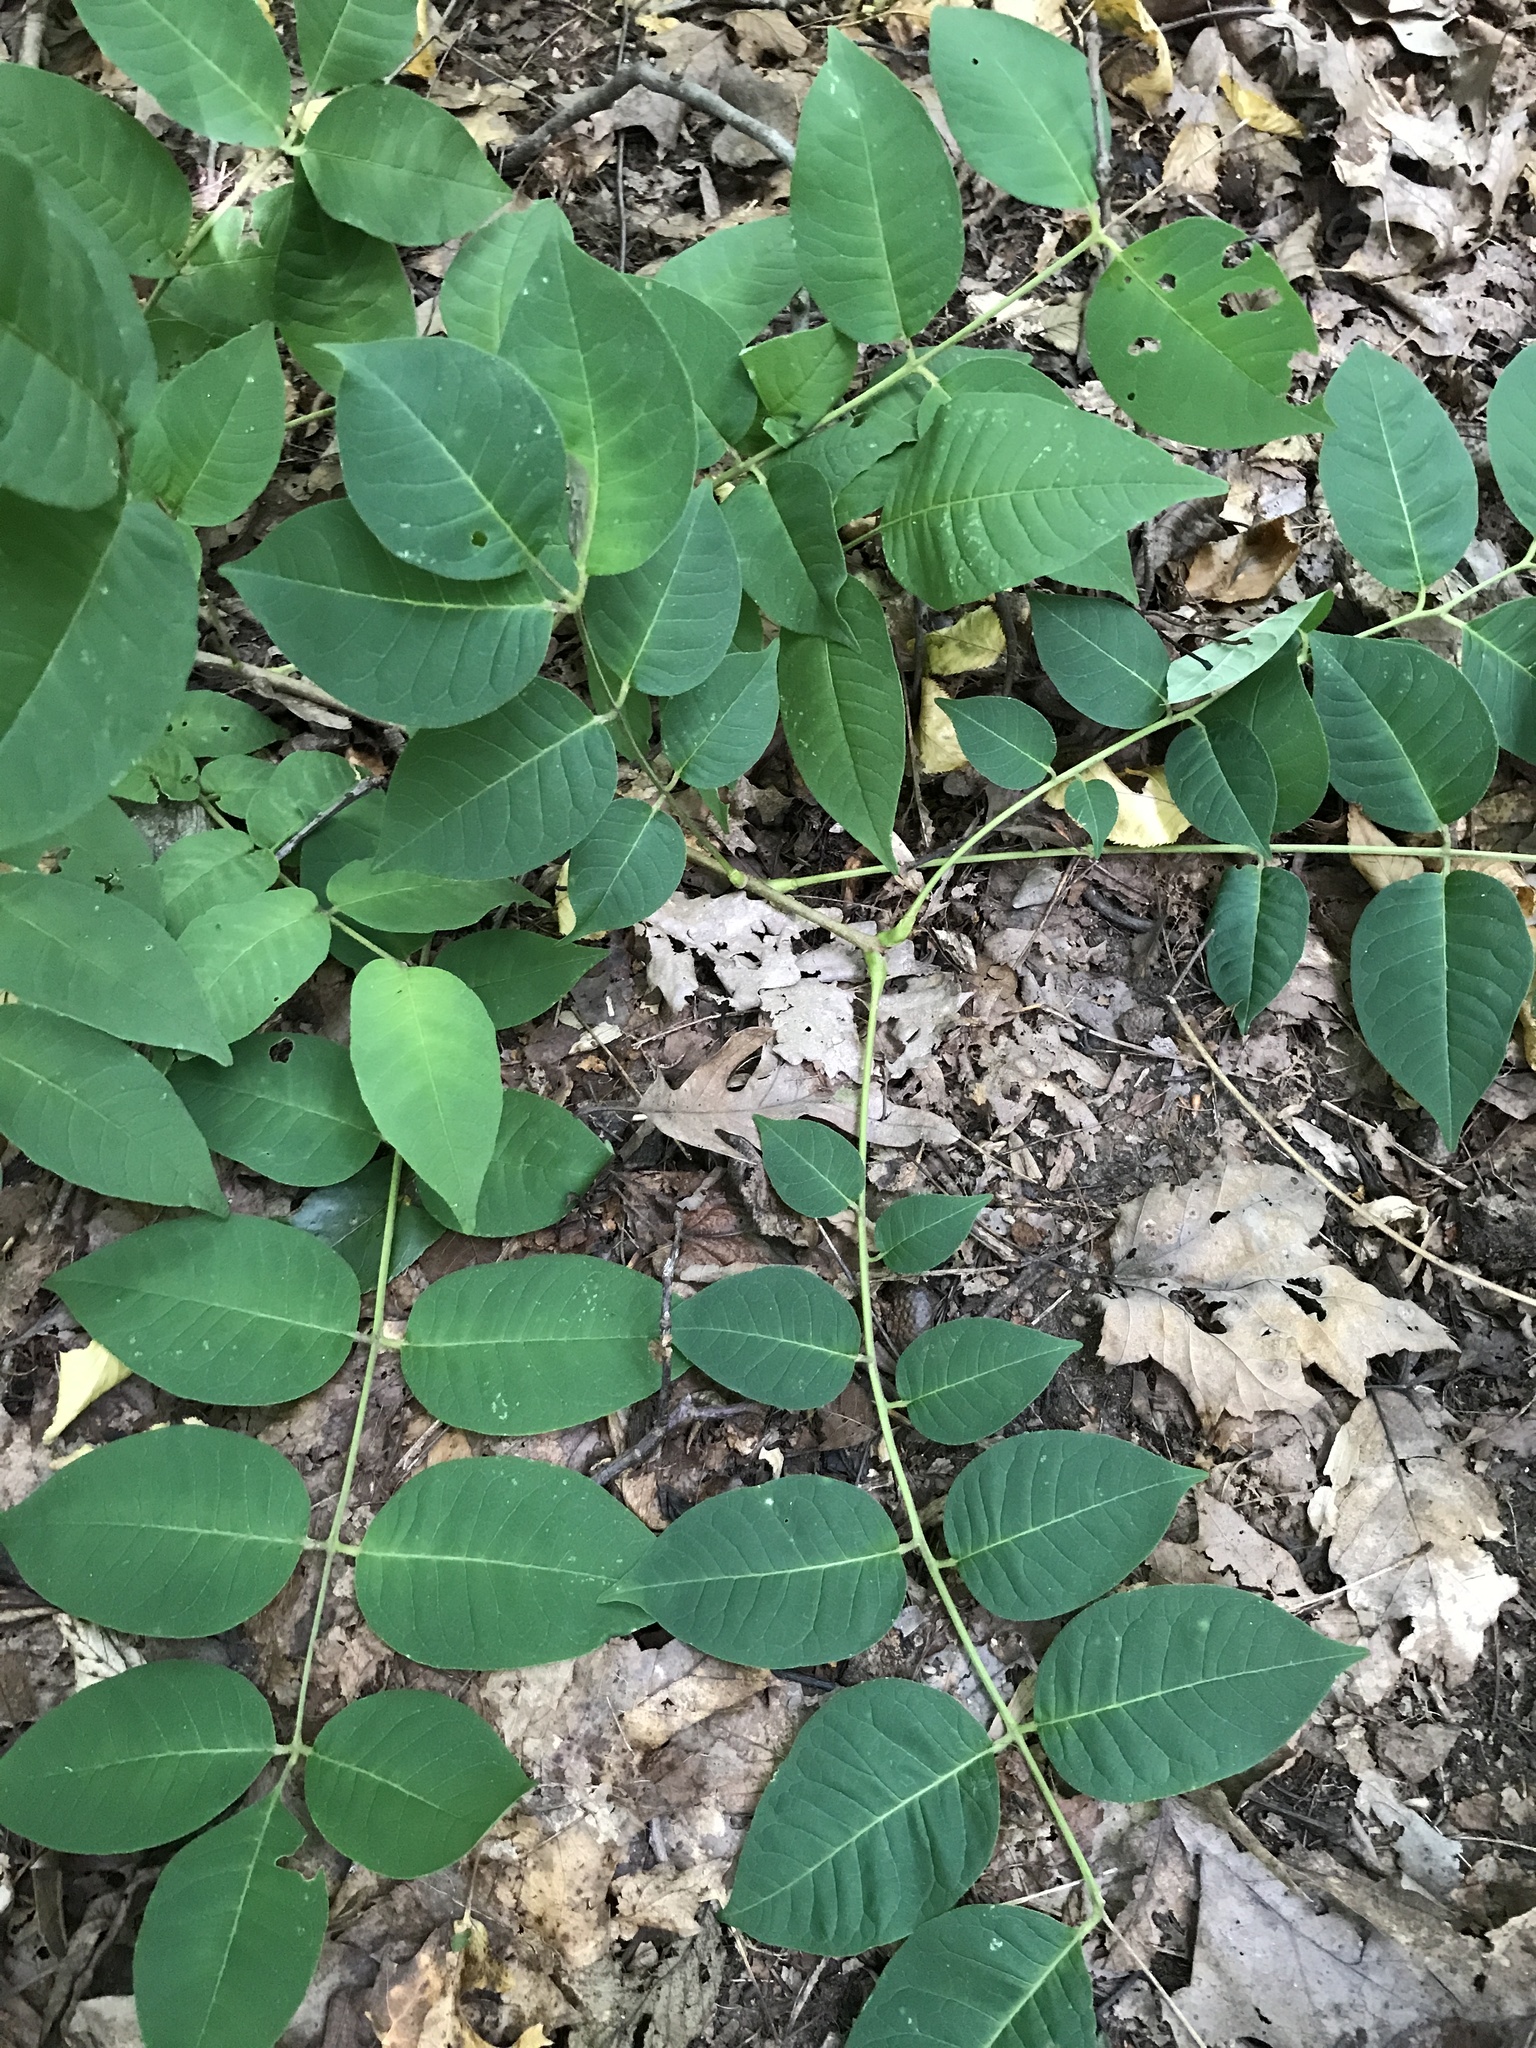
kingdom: Plantae
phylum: Tracheophyta
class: Magnoliopsida
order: Sapindales
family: Rutaceae
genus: Phellodendron
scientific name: Phellodendron amurense
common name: Amur corktree
